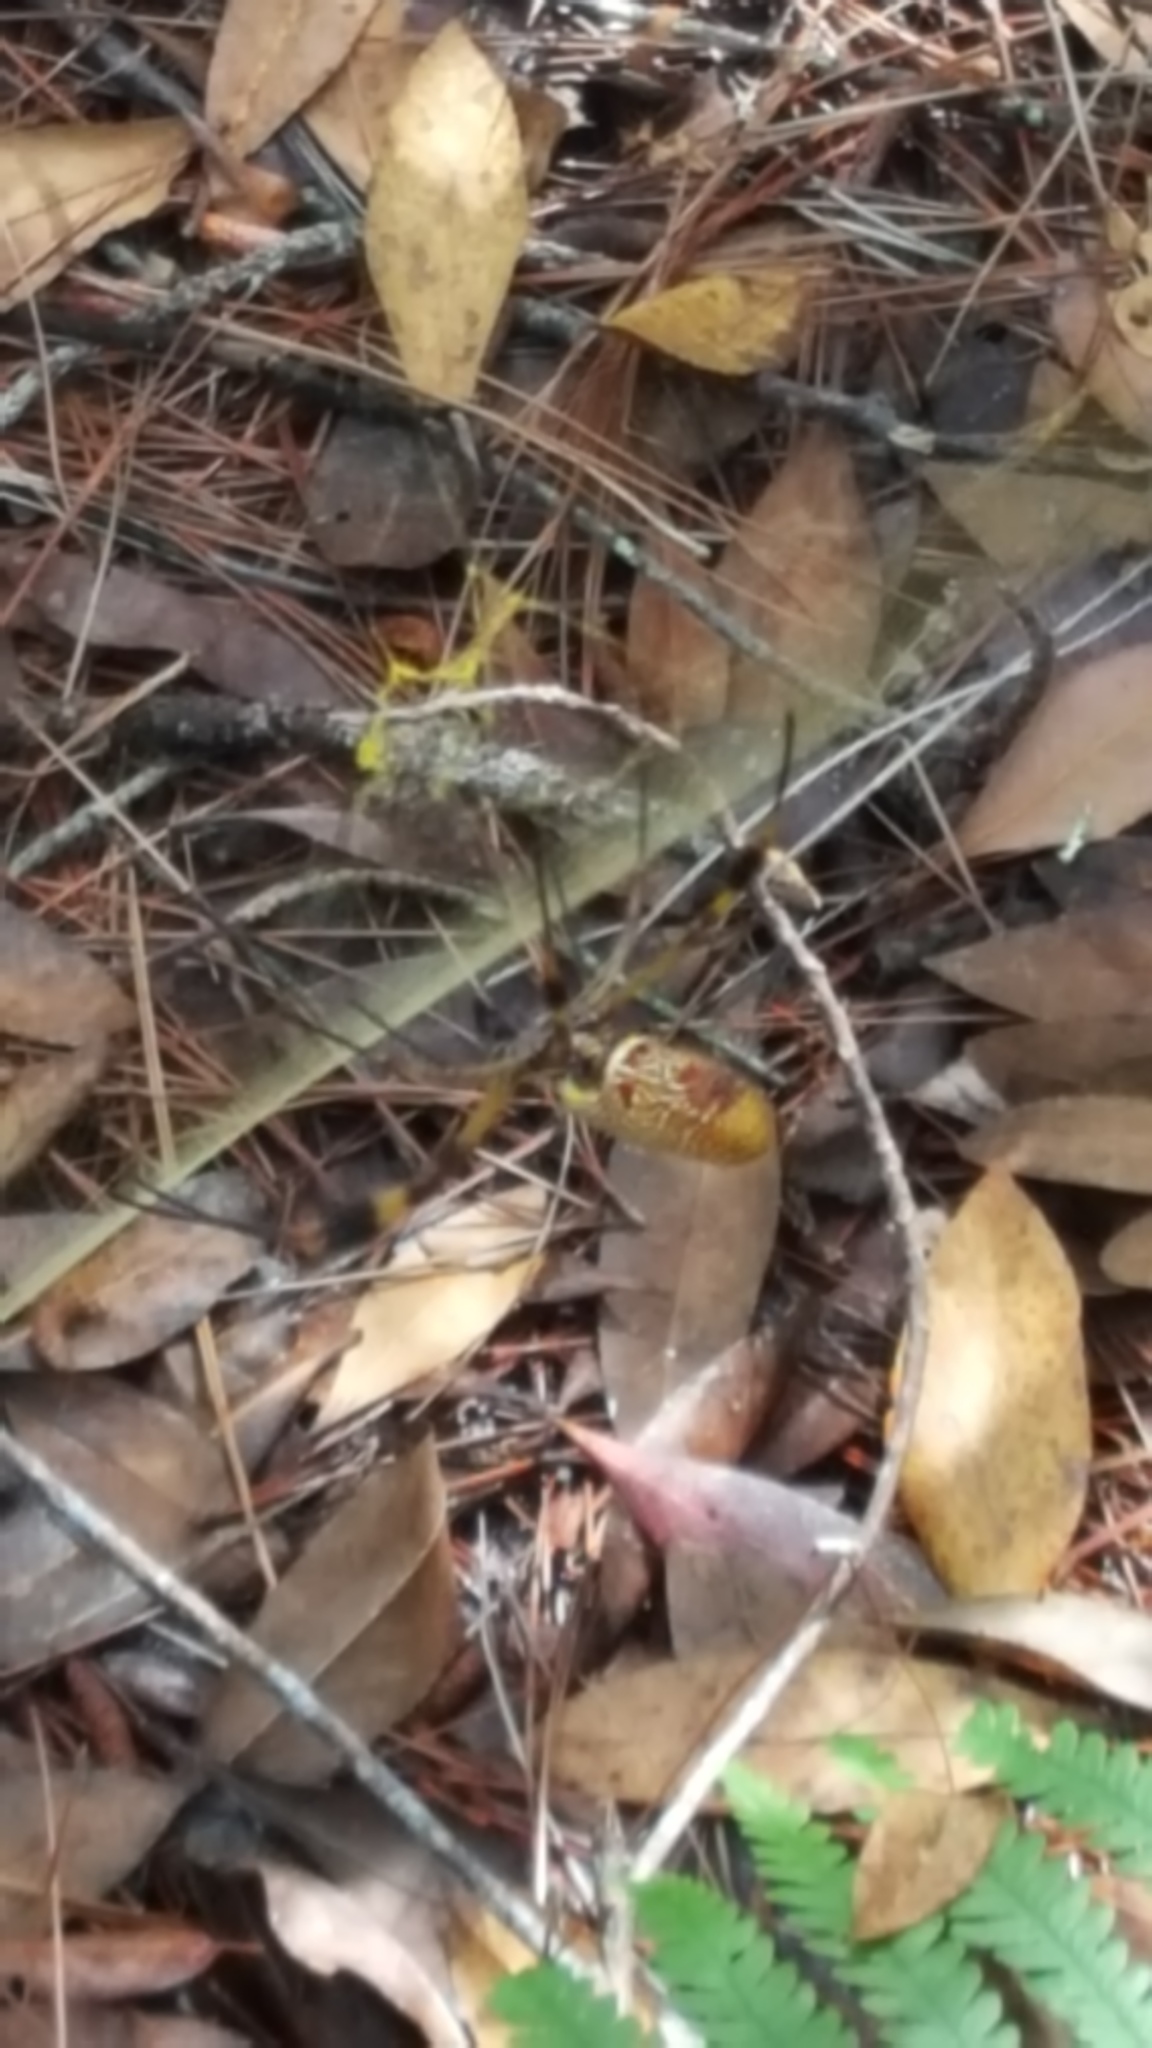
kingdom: Animalia
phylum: Arthropoda
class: Arachnida
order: Araneae
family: Araneidae
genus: Trichonephila
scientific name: Trichonephila clavipes
